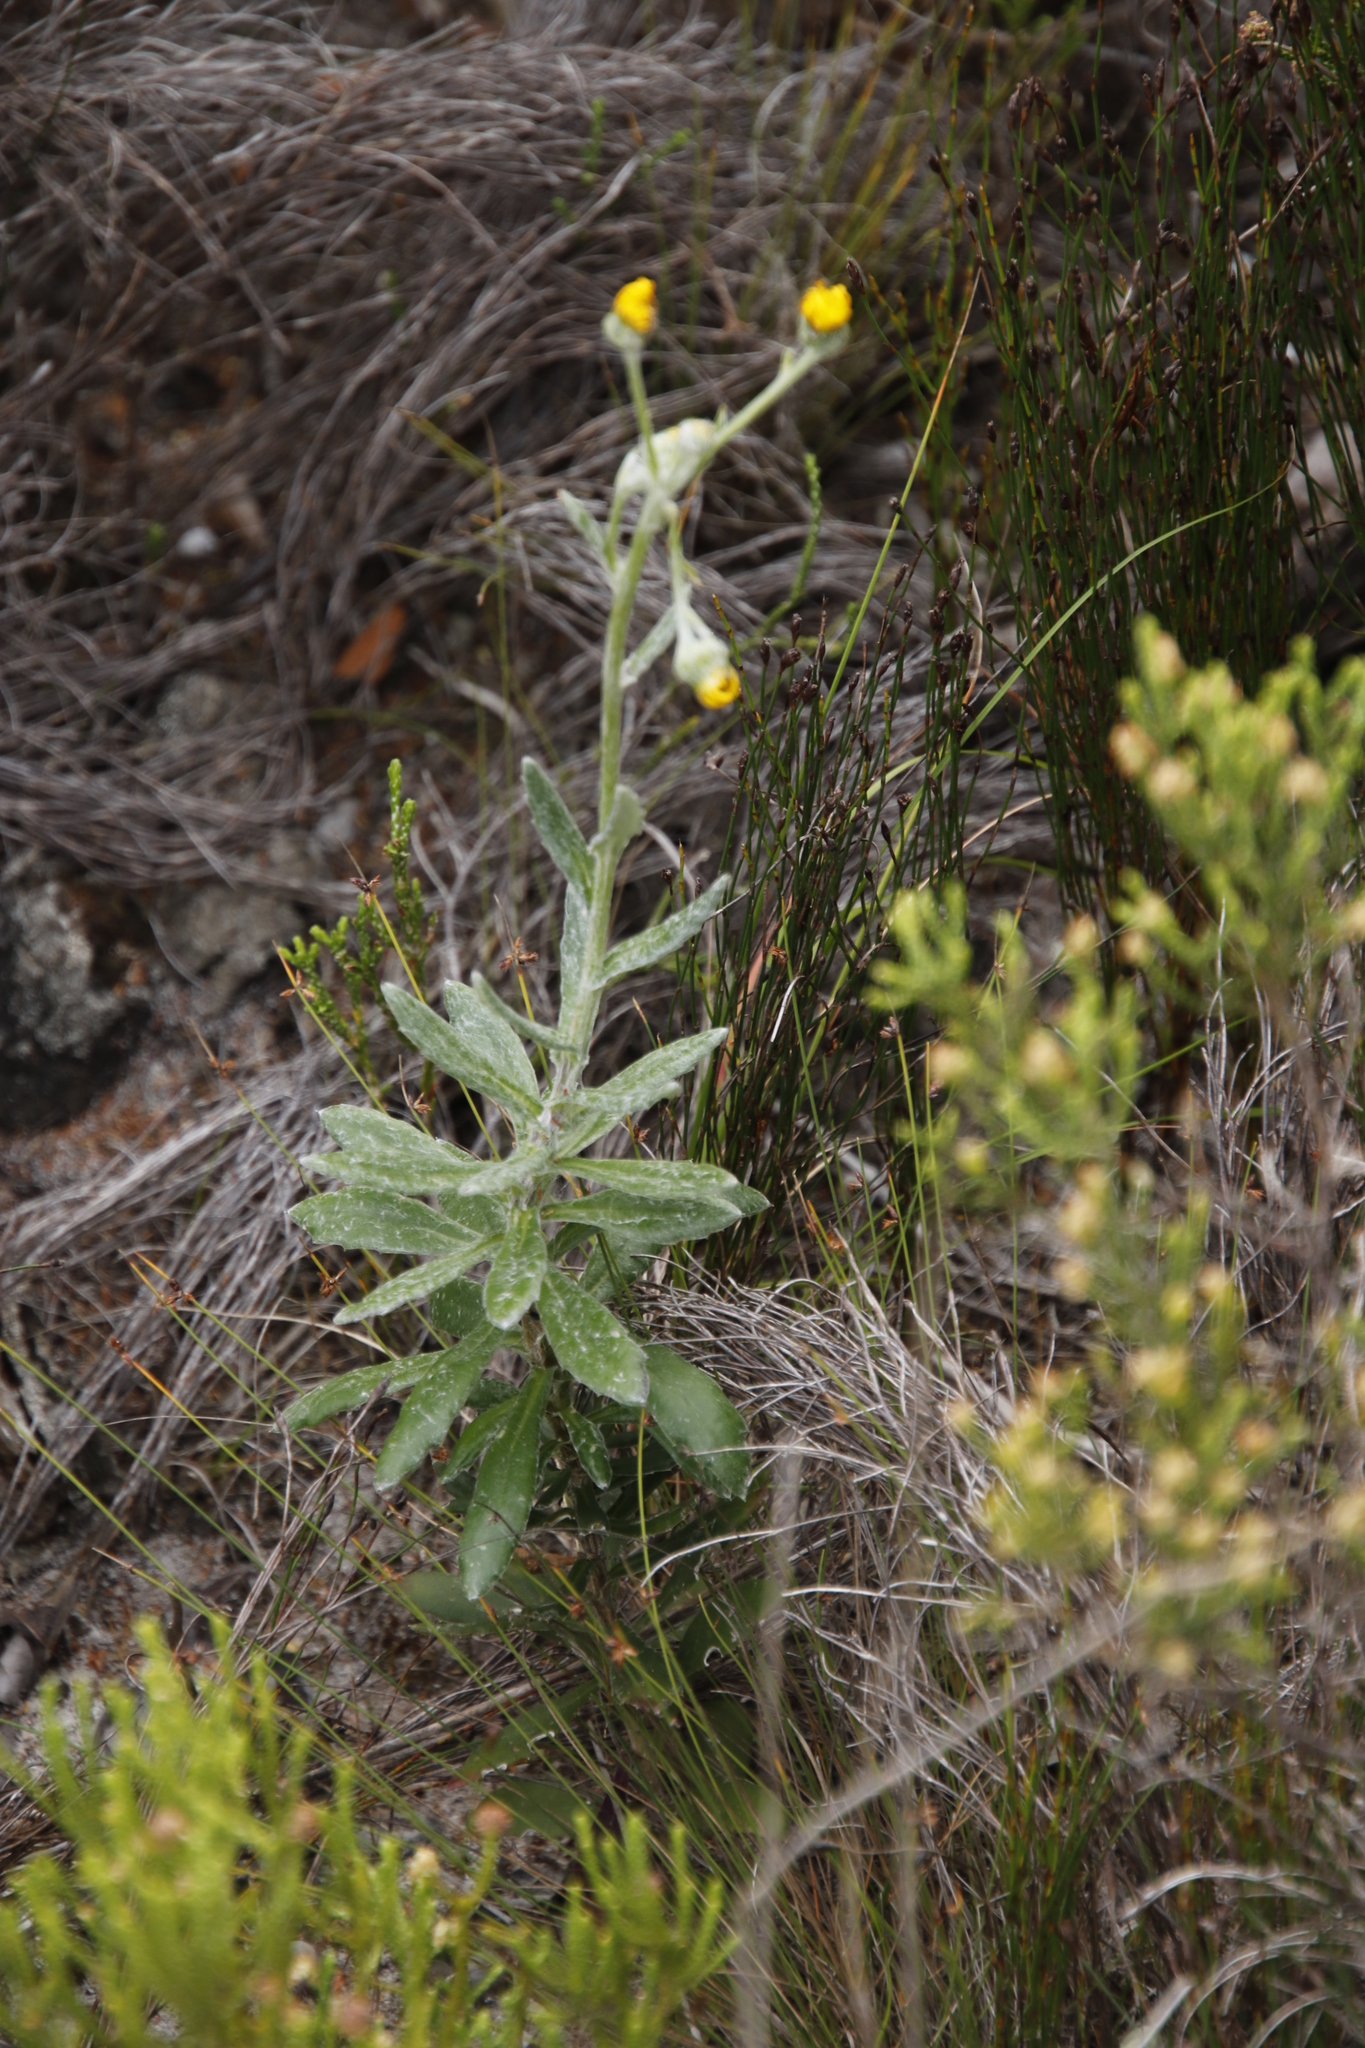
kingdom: Plantae
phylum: Tracheophyta
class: Magnoliopsida
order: Asterales
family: Asteraceae
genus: Senecio
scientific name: Senecio arniciflorus
